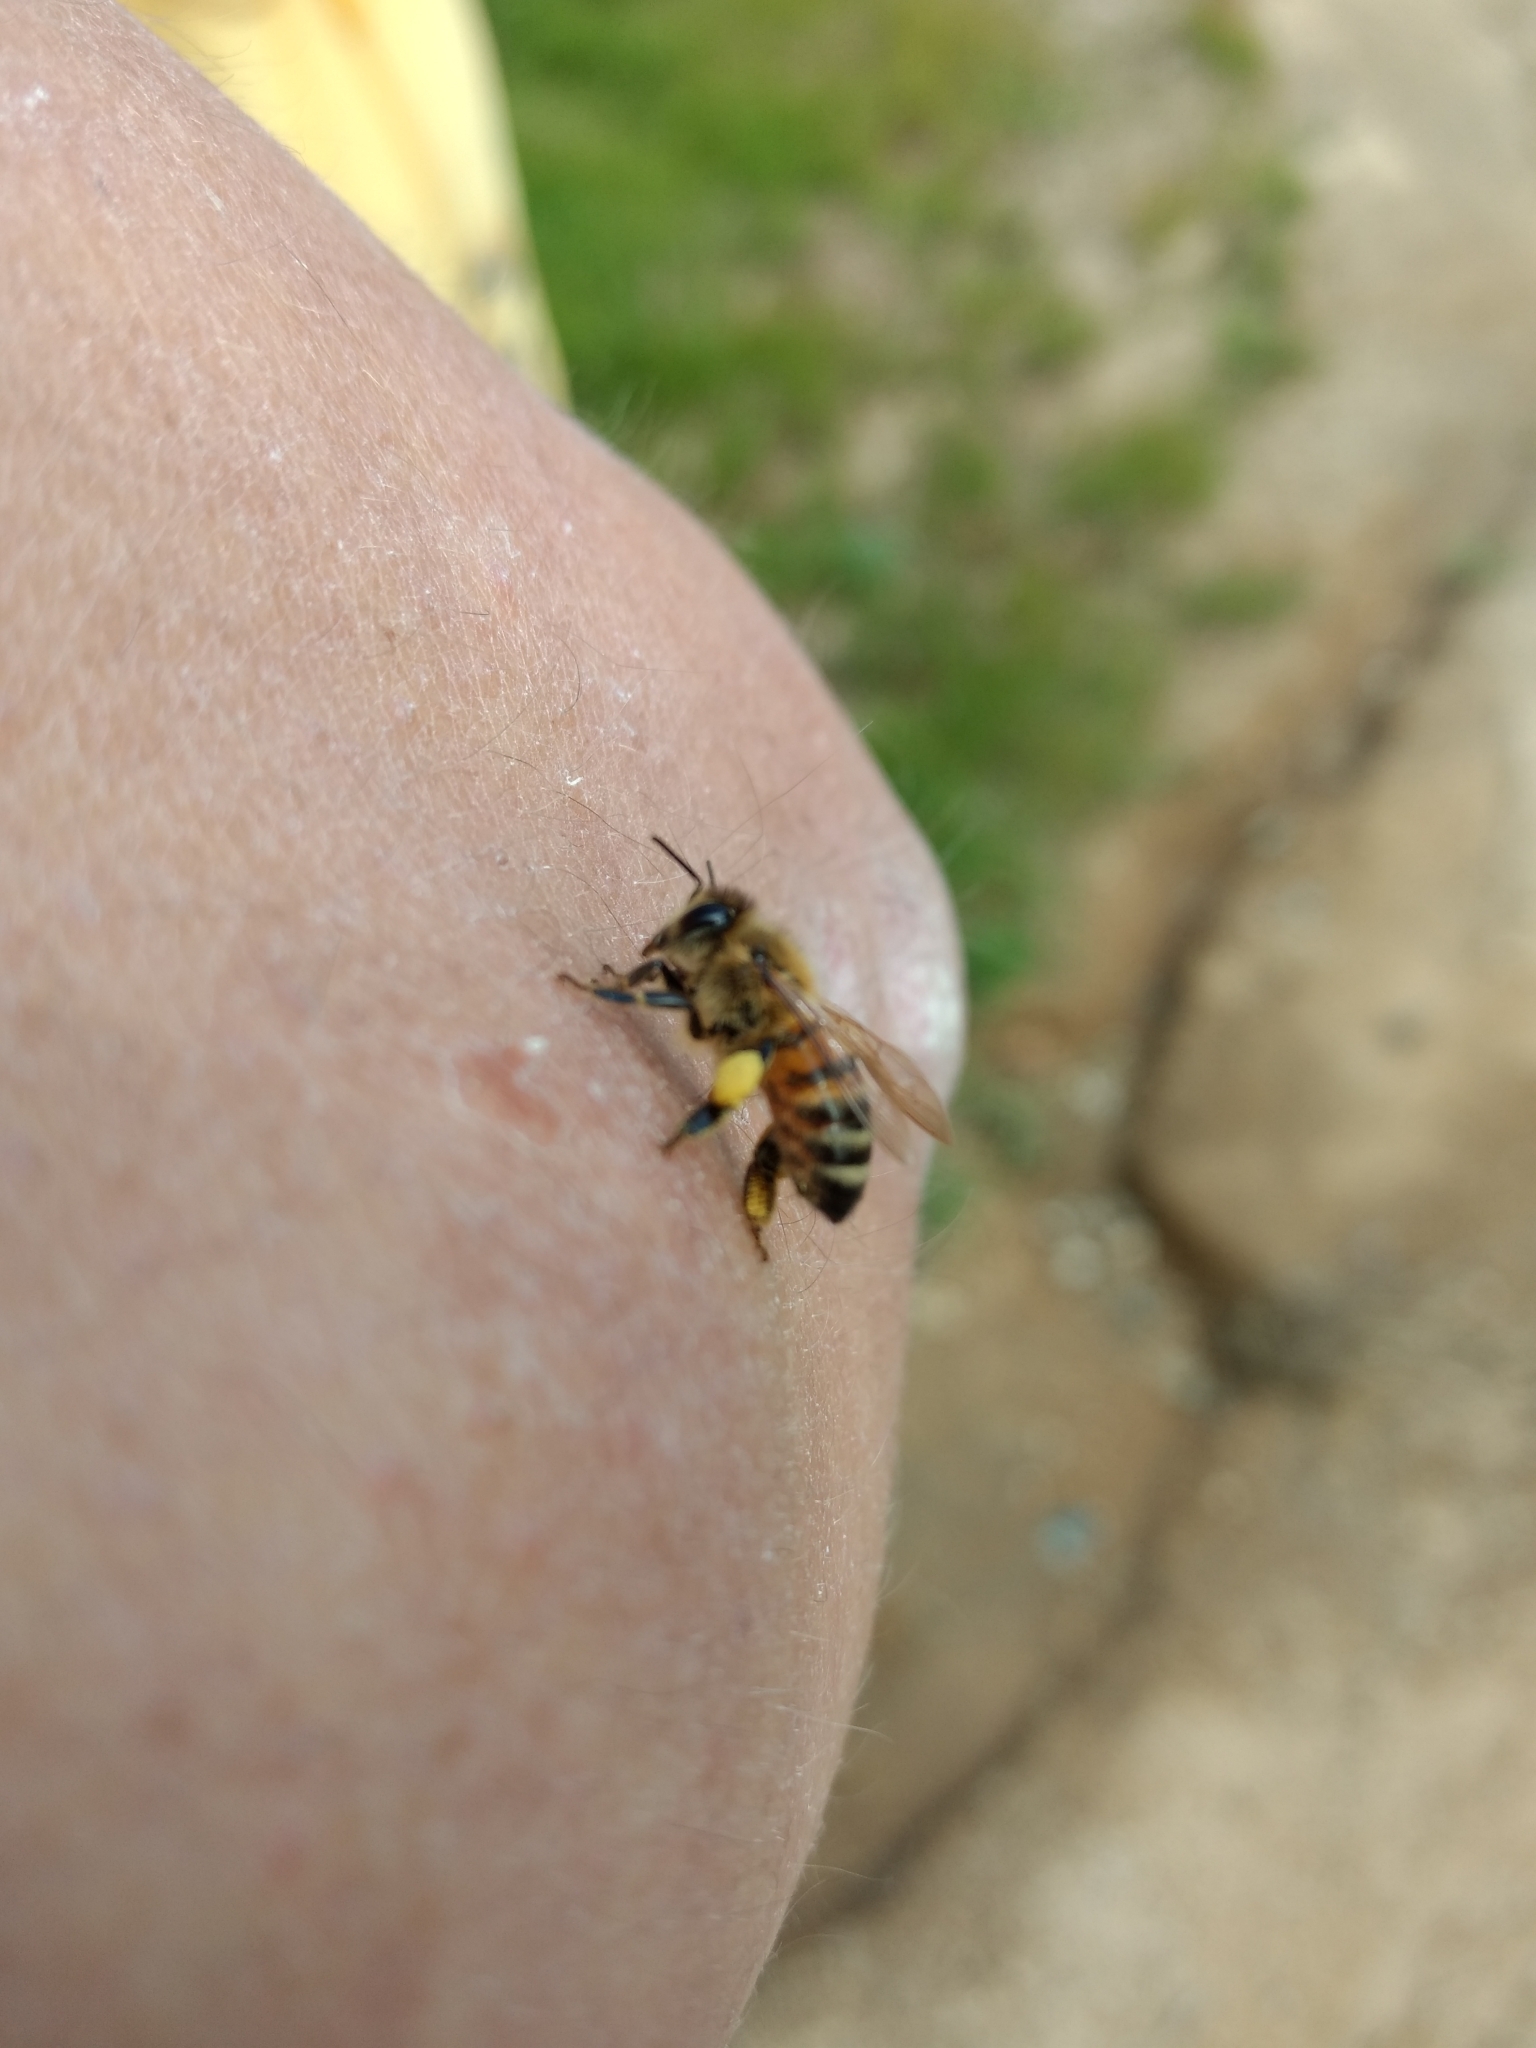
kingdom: Animalia
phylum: Arthropoda
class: Insecta
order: Hymenoptera
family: Apidae
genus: Apis
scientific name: Apis mellifera
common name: Honey bee
